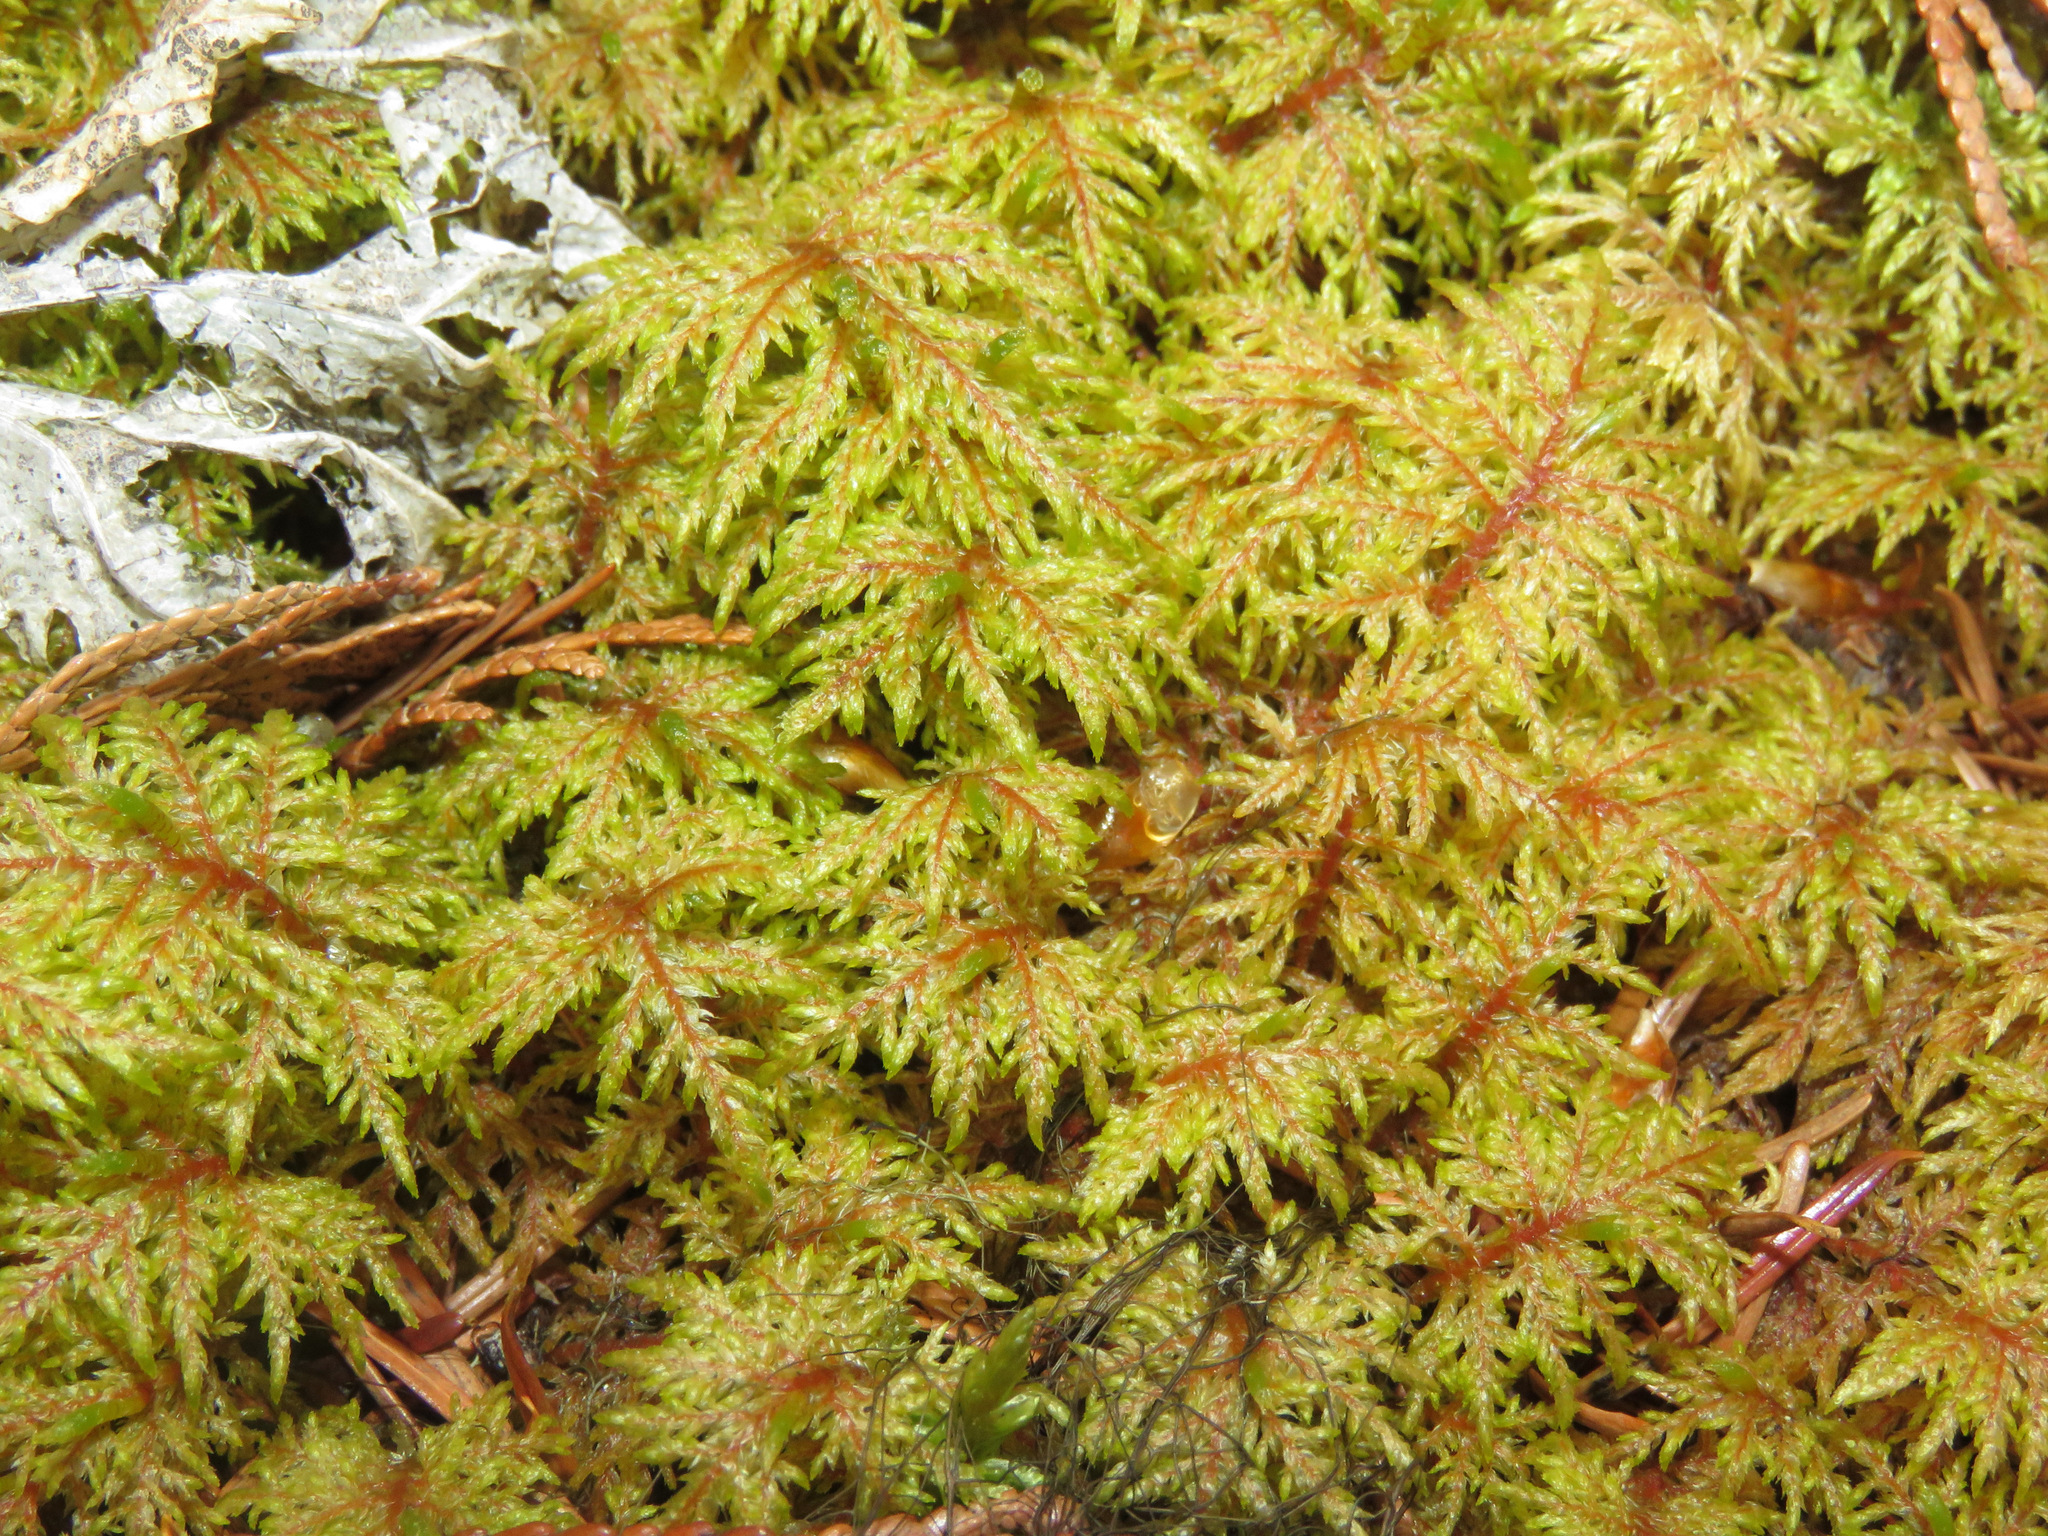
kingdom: Plantae
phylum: Bryophyta
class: Bryopsida
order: Hypnales
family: Hylocomiaceae
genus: Hylocomium
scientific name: Hylocomium splendens
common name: Stairstep moss
